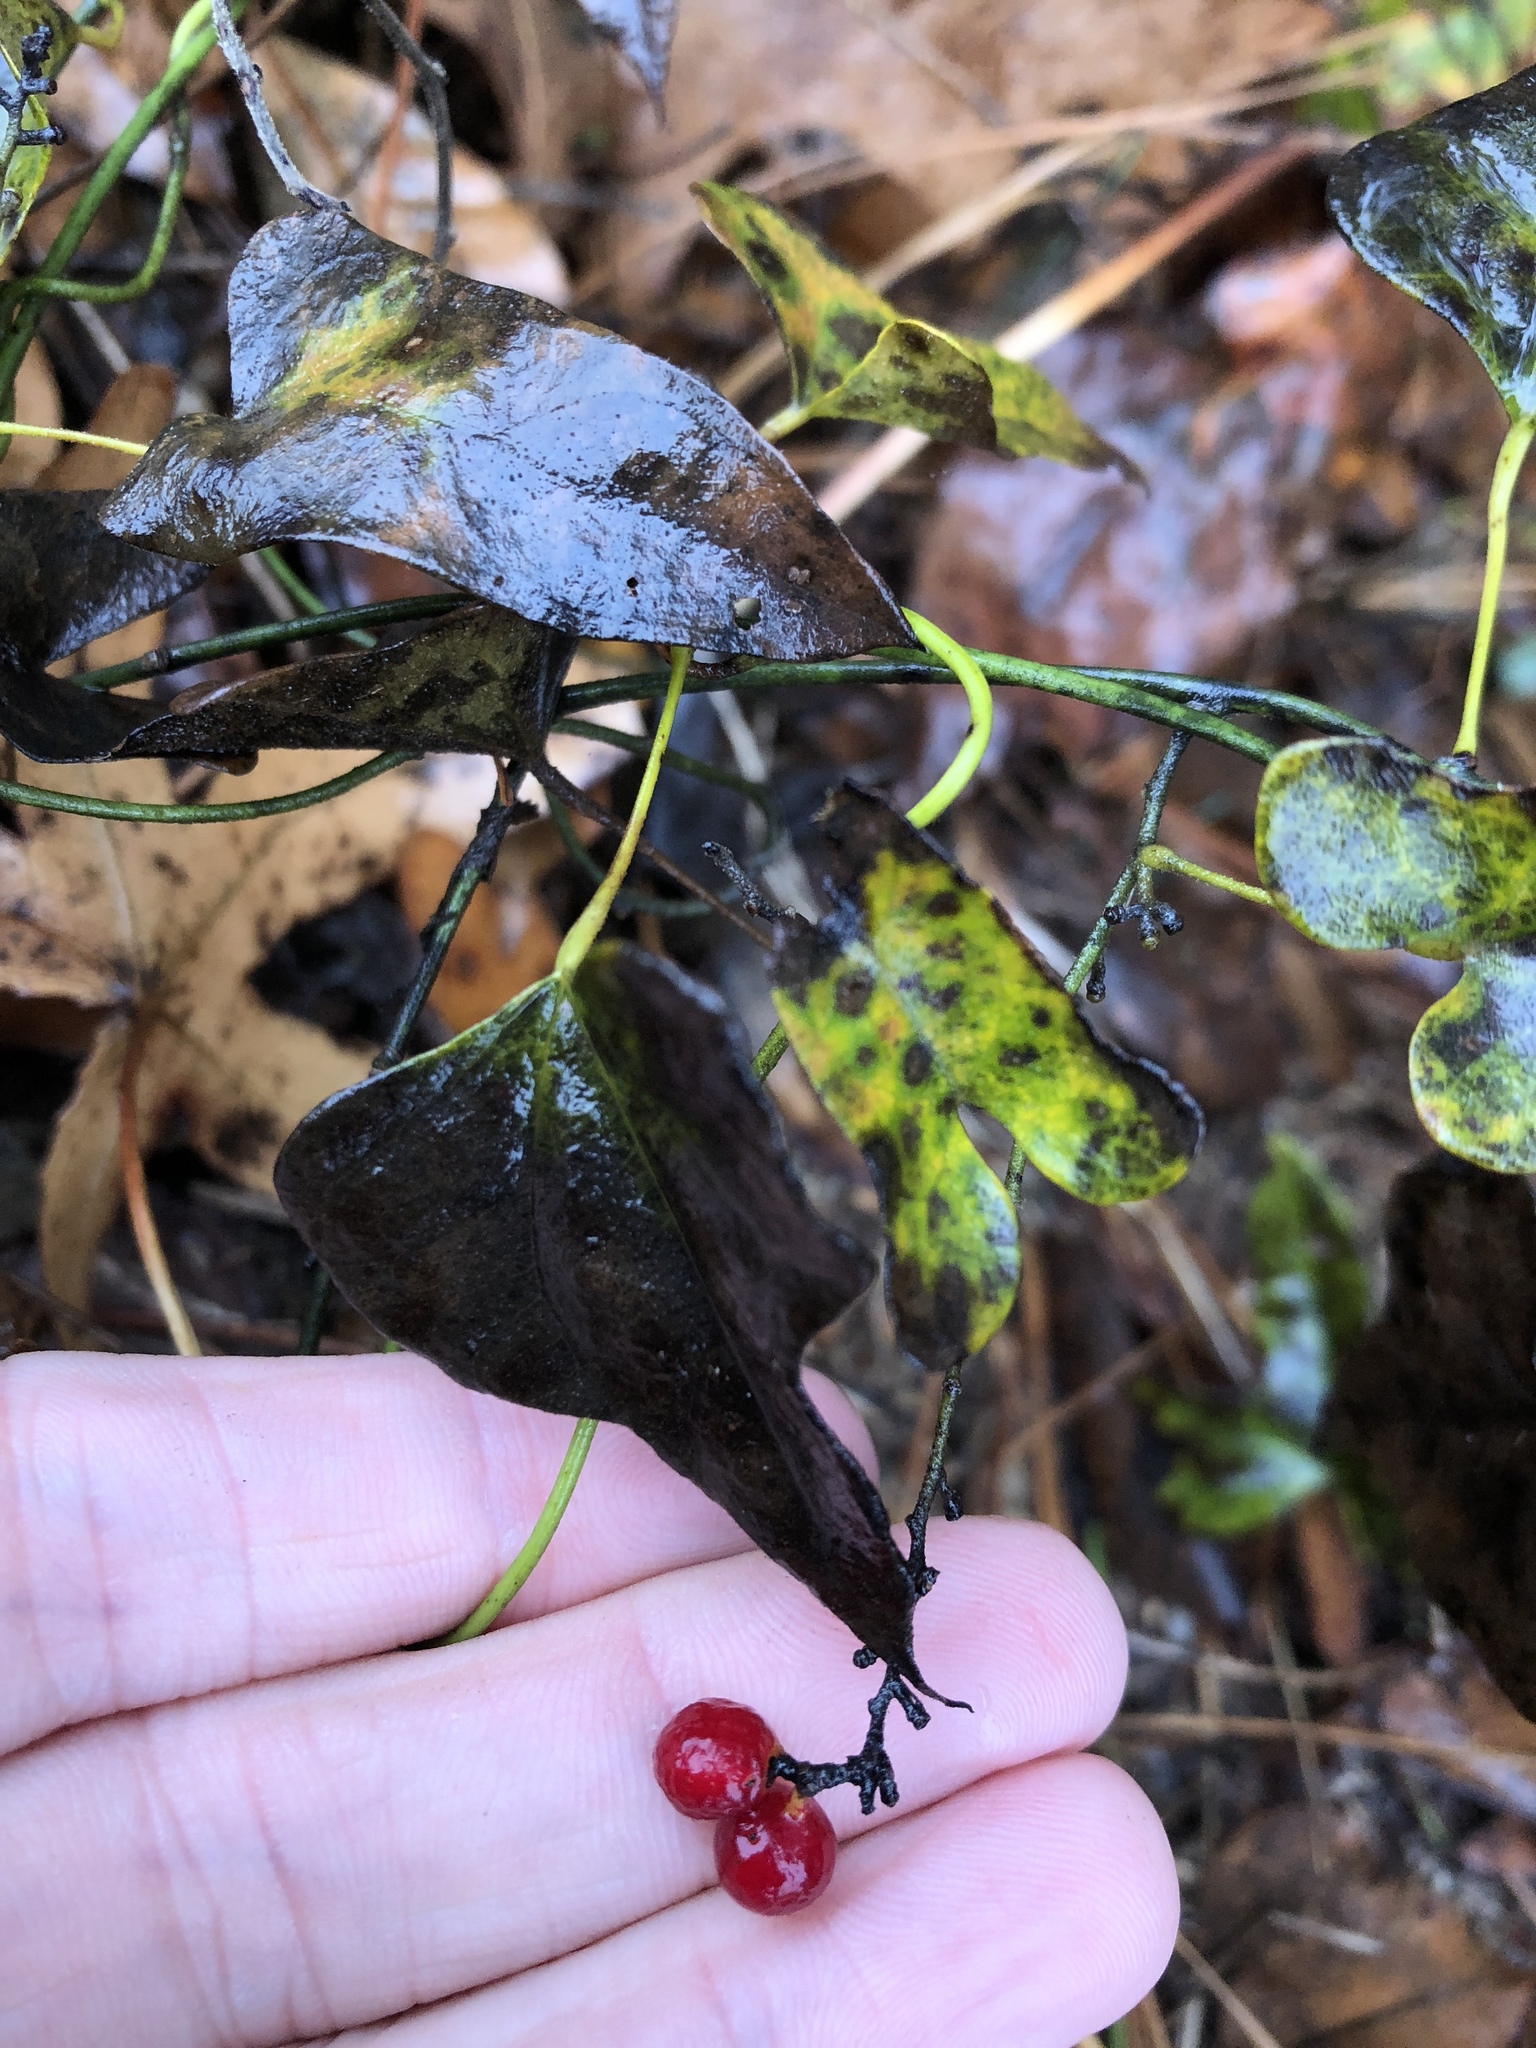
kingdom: Plantae
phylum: Tracheophyta
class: Magnoliopsida
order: Ranunculales
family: Menispermaceae
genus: Cocculus
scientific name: Cocculus carolinus
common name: Carolina moonseed
